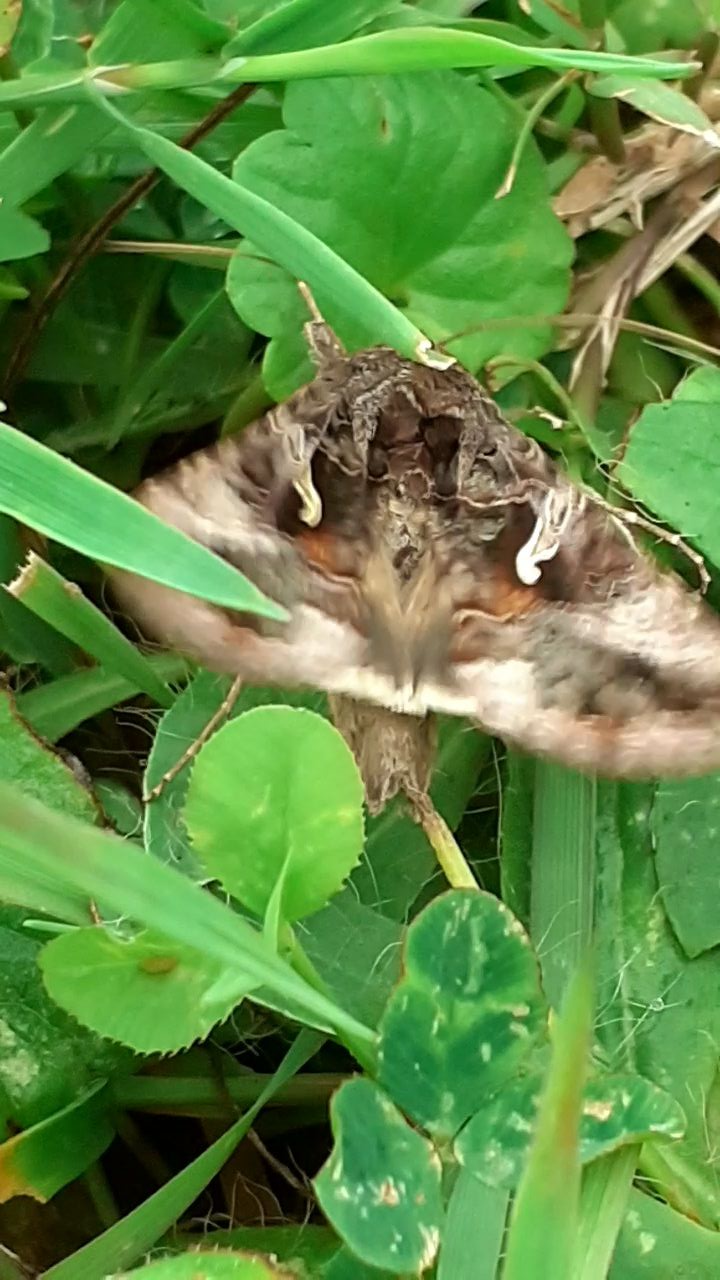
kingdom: Animalia
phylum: Arthropoda
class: Insecta
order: Lepidoptera
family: Noctuidae
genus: Autographa
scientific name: Autographa gamma
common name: Silver y
